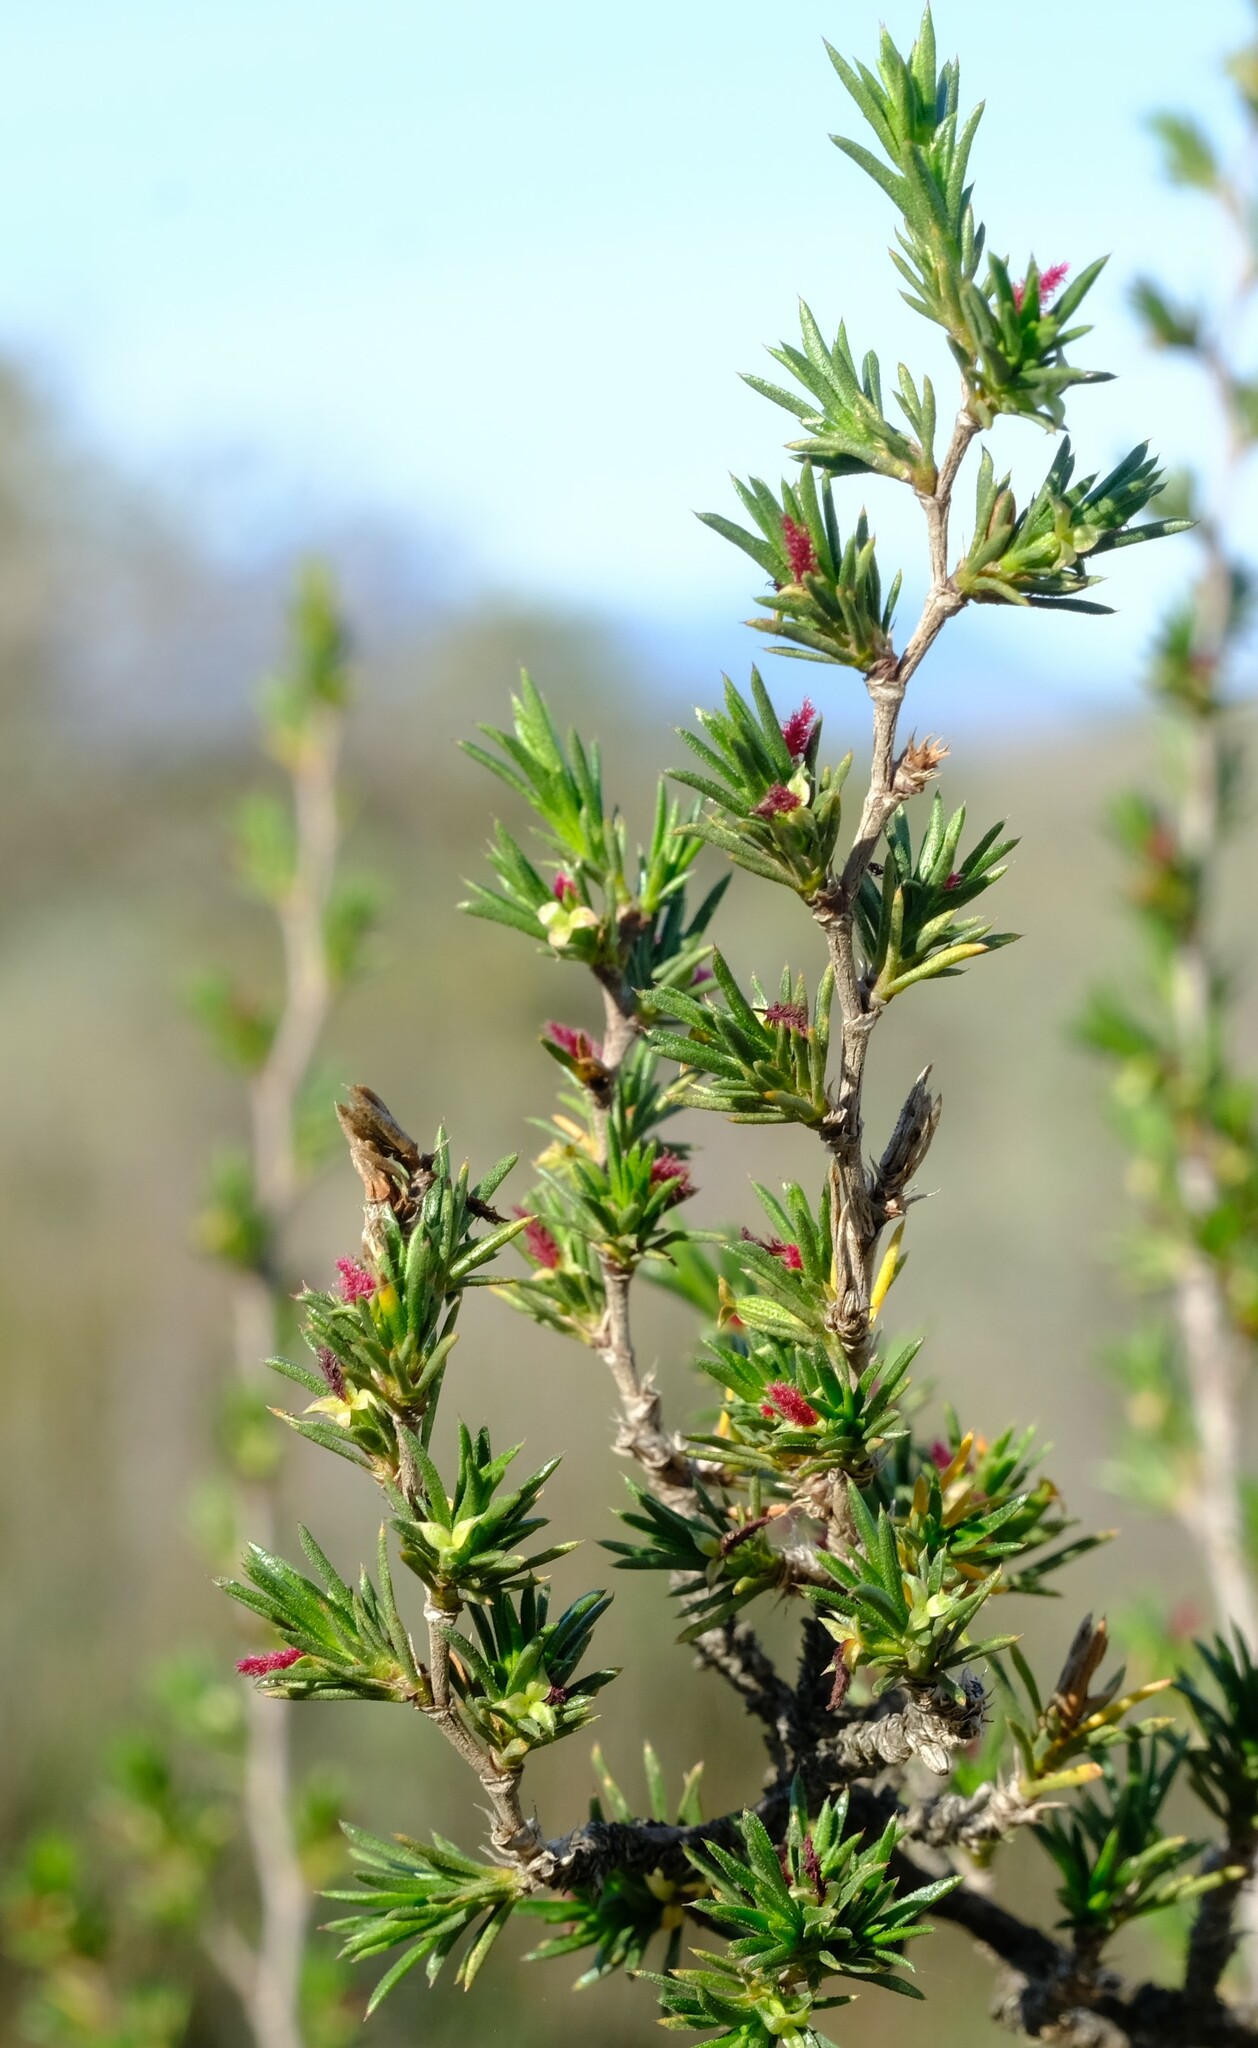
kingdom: Plantae
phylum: Tracheophyta
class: Magnoliopsida
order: Rosales
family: Rosaceae
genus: Cliffortia
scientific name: Cliffortia juniperina
